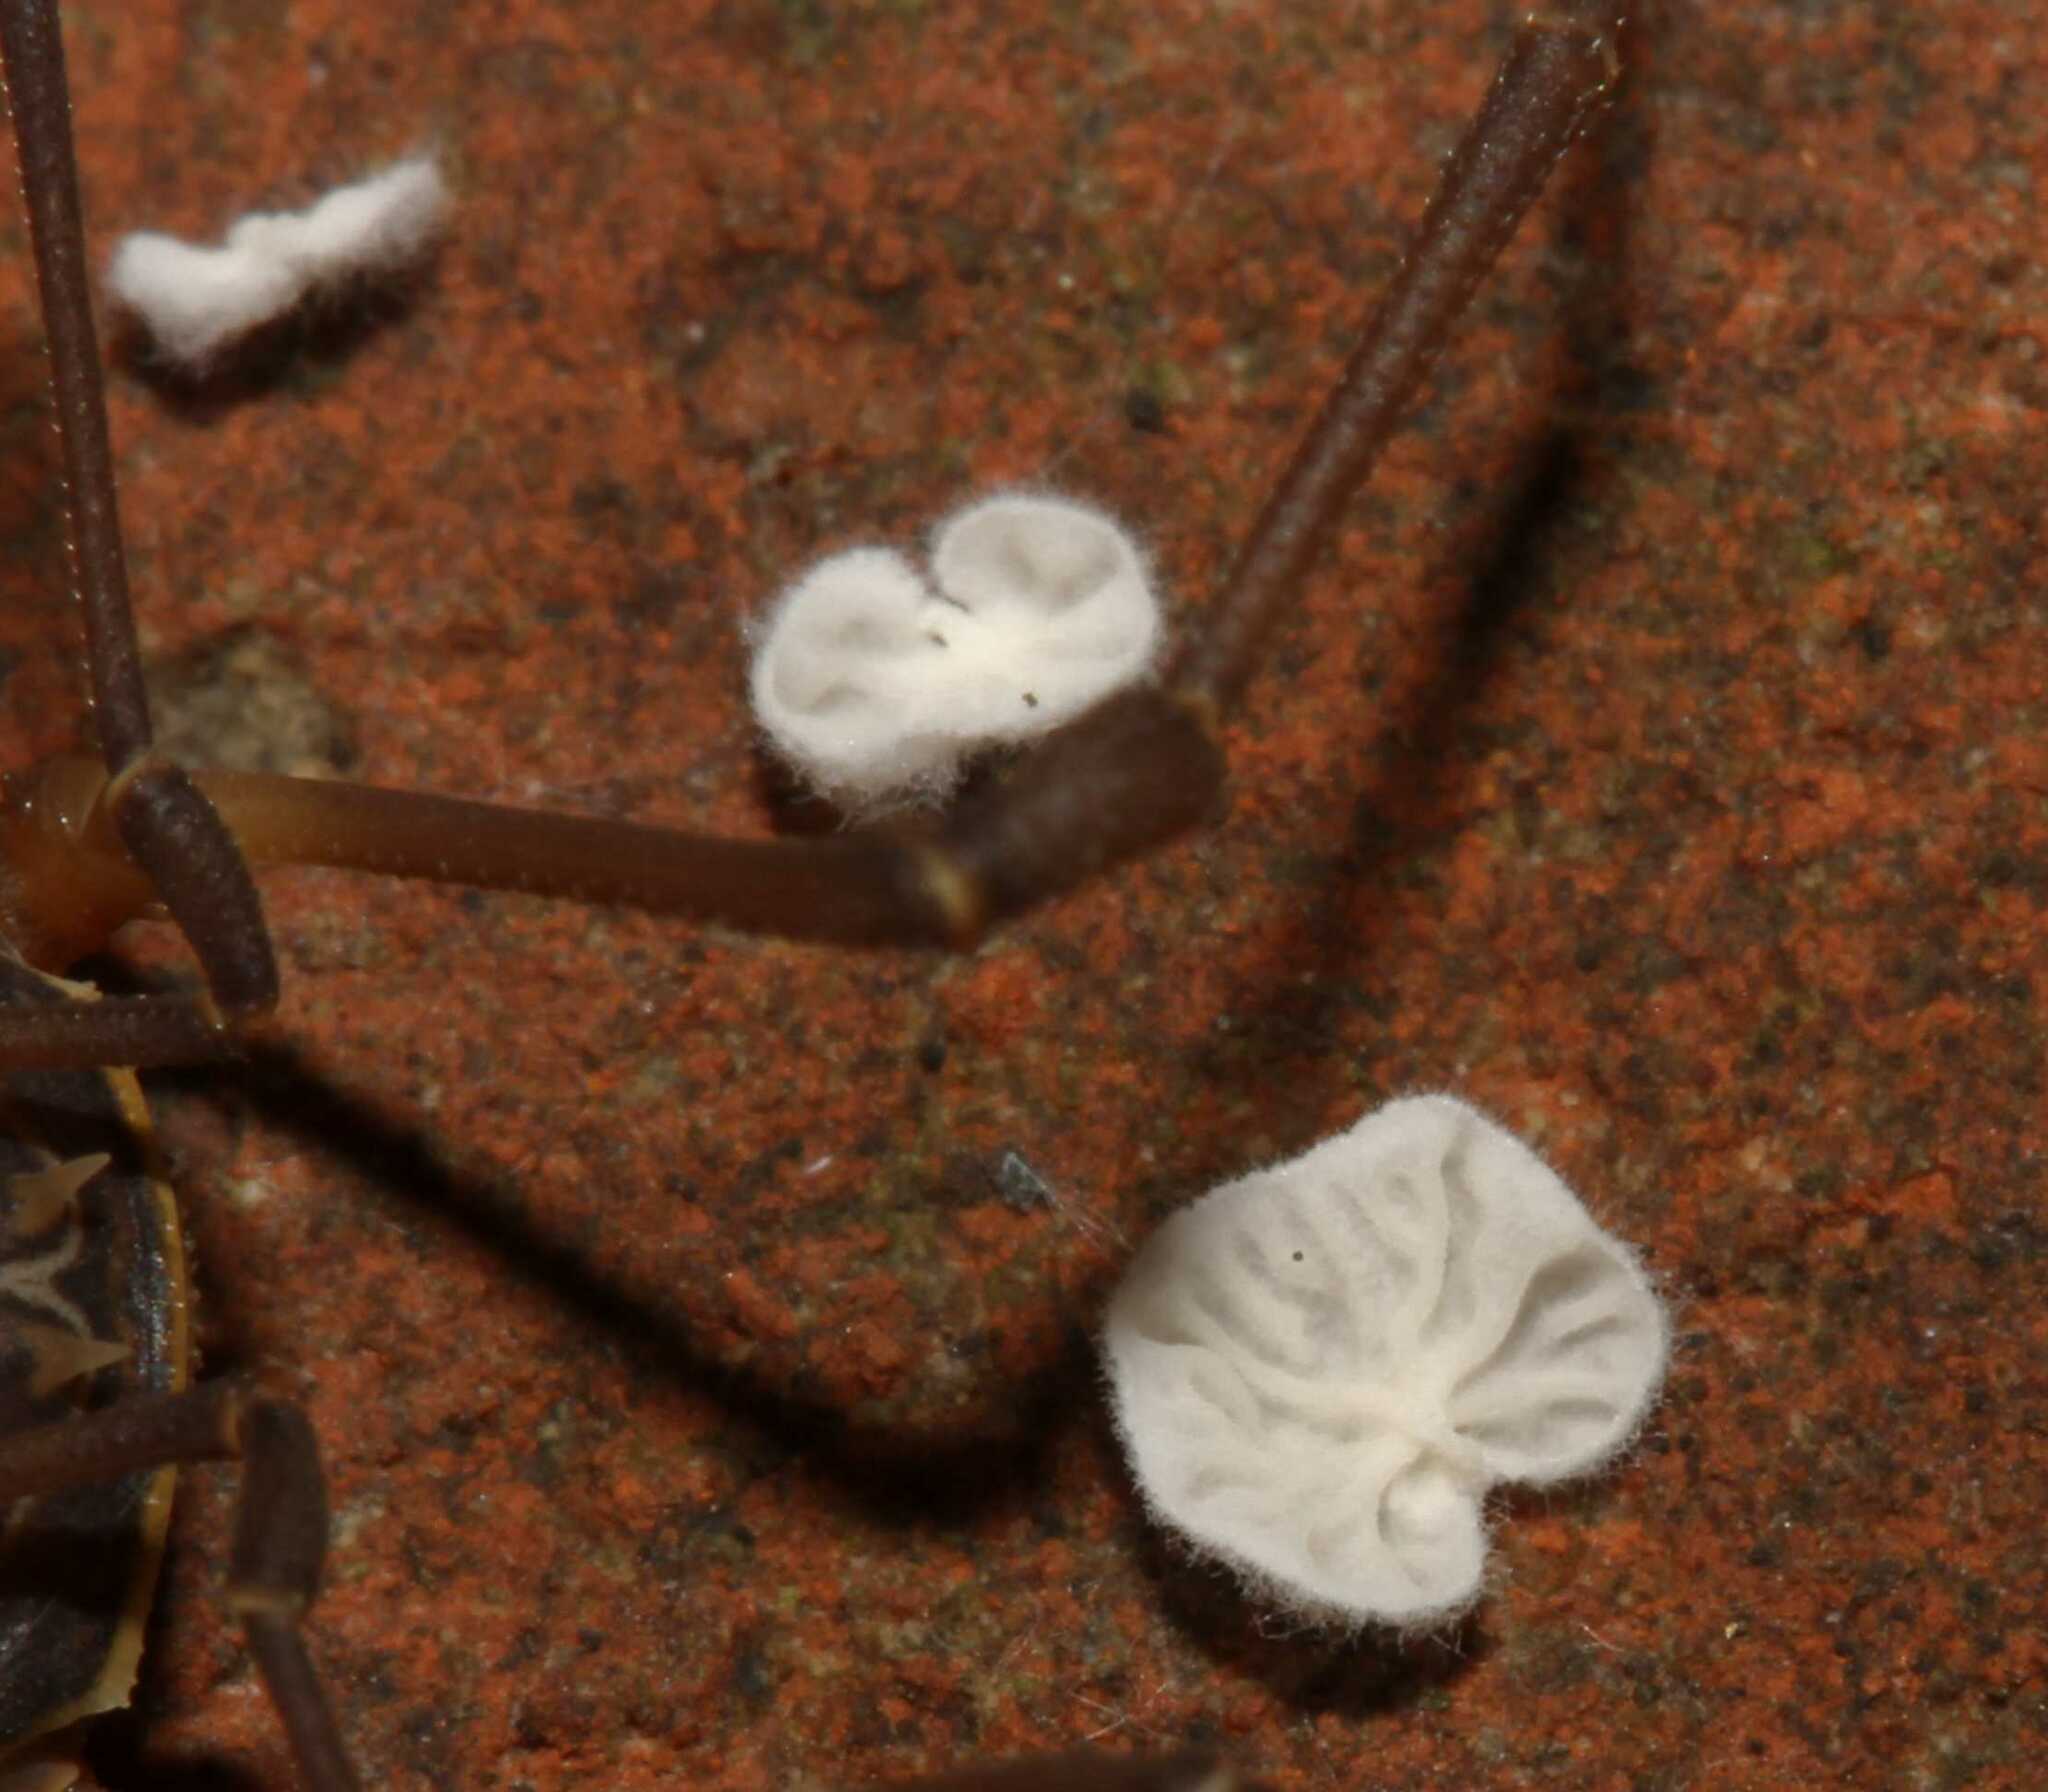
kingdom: Fungi
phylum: Basidiomycota
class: Agaricomycetes
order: Agaricales
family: Entolomataceae
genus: Clitopilus
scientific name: Clitopilus
